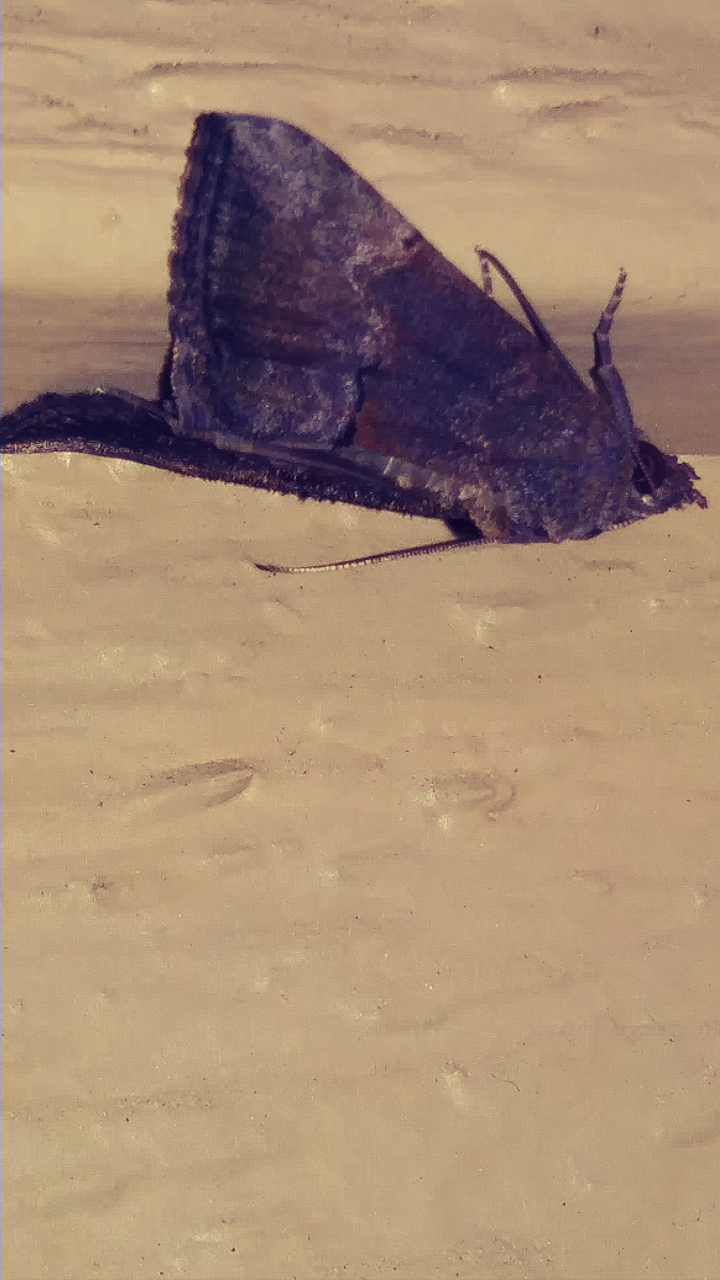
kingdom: Animalia
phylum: Arthropoda
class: Insecta
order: Lepidoptera
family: Erebidae
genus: Hypena
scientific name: Hypena scabra
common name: Green cloverworm
